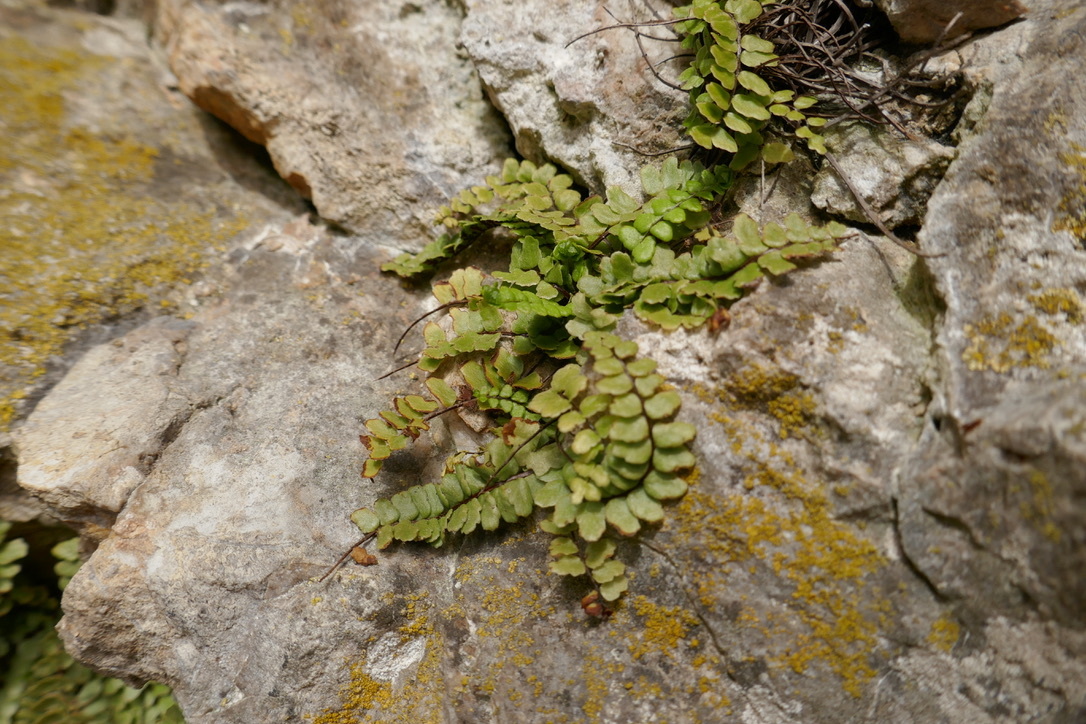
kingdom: Plantae
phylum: Tracheophyta
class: Polypodiopsida
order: Polypodiales
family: Aspleniaceae
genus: Asplenium
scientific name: Asplenium trichomanes
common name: Maidenhair spleenwort
